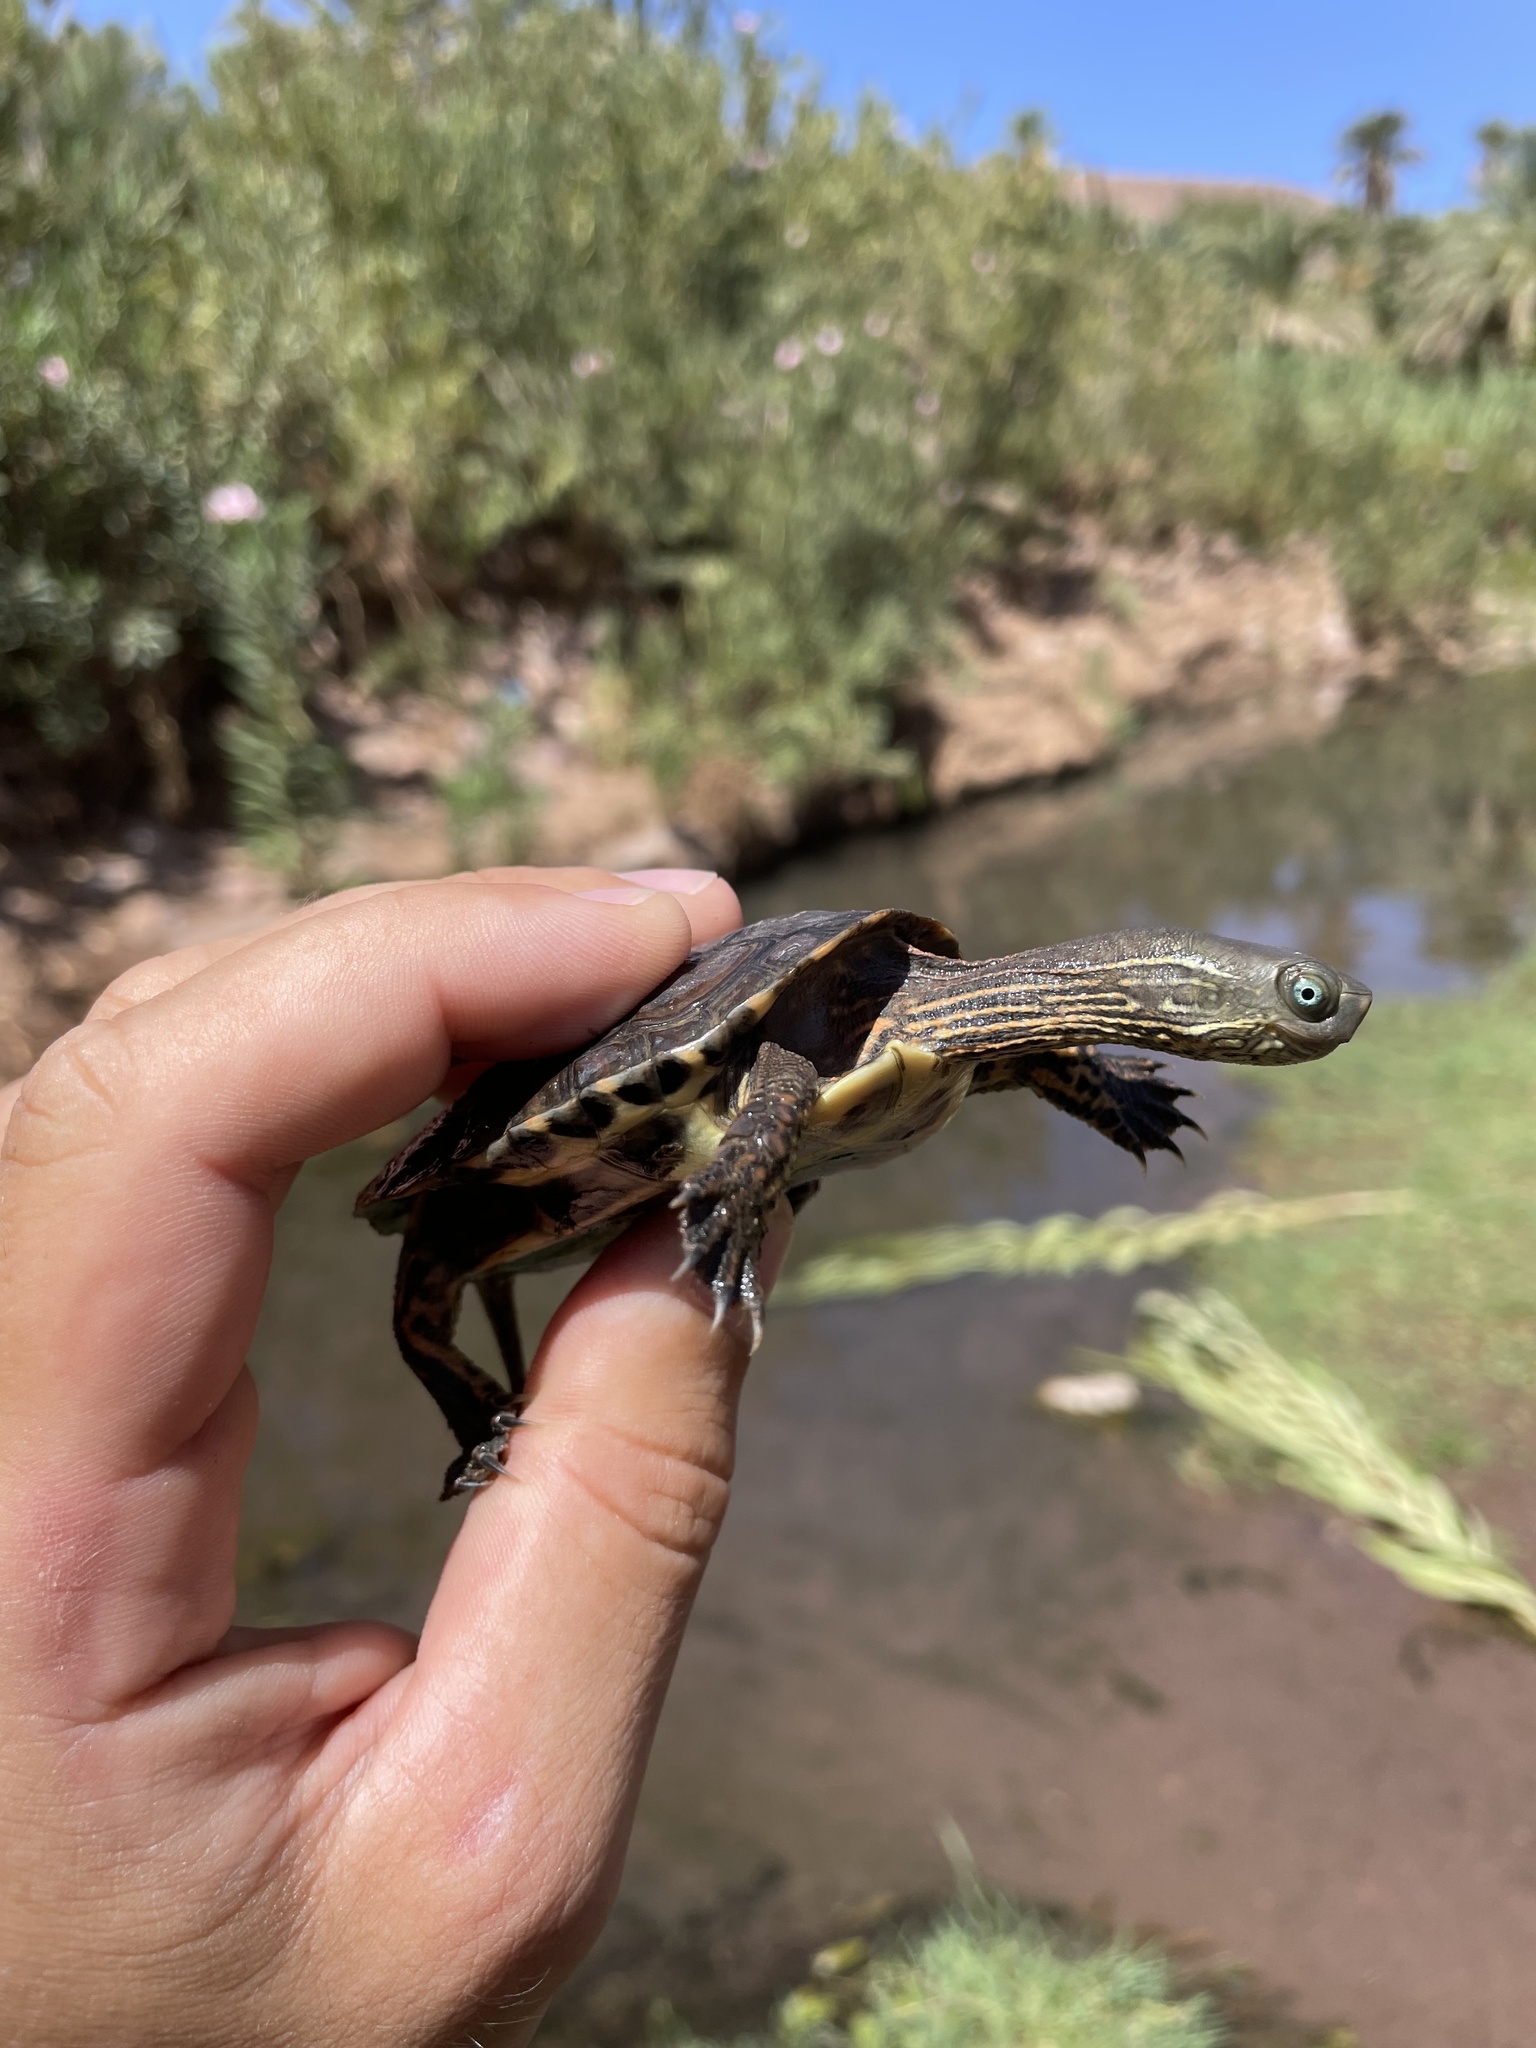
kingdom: Animalia
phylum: Chordata
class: Testudines
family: Geoemydidae
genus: Mauremys
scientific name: Mauremys leprosa
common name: Mediterranean pond turtle
